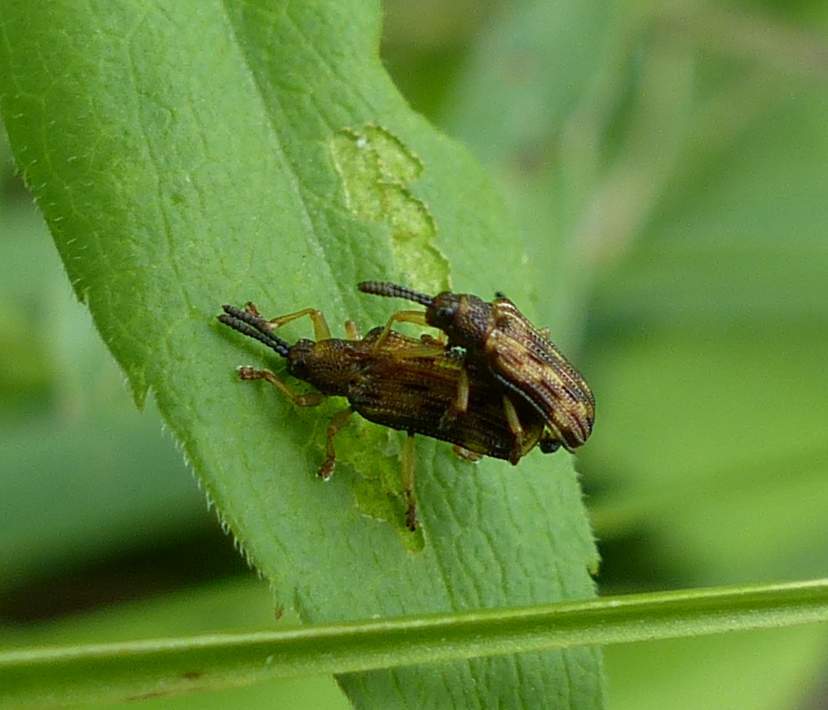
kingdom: Animalia
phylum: Arthropoda
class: Insecta
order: Coleoptera
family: Chrysomelidae
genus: Sumitrosis
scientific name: Sumitrosis inaequalis
